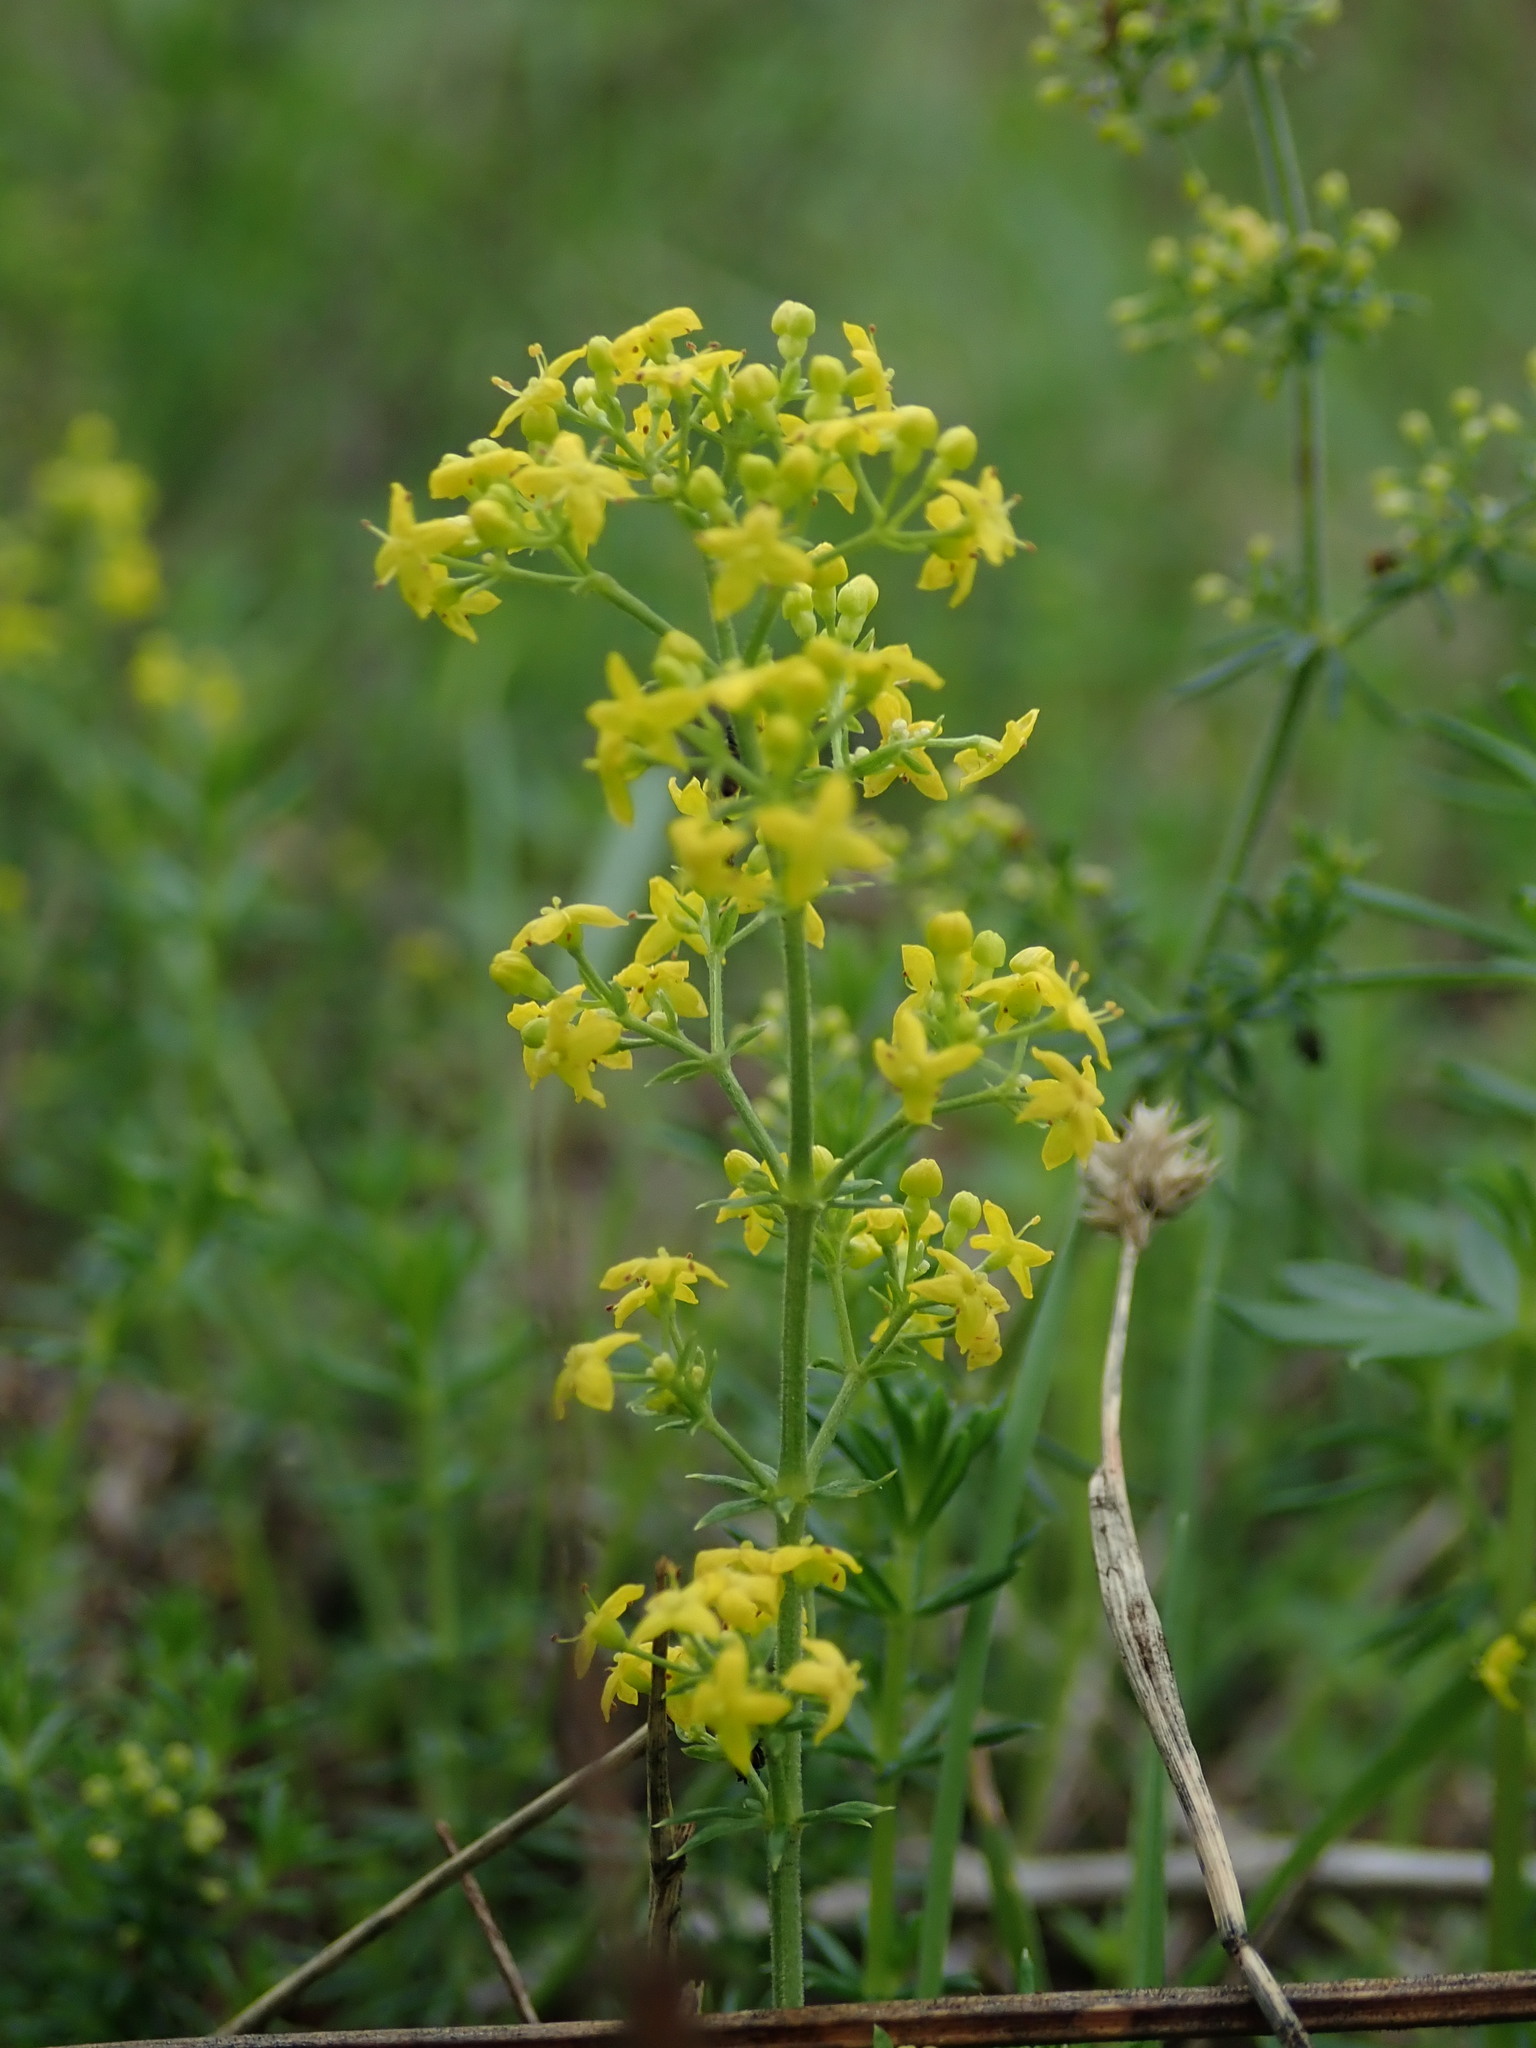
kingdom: Plantae
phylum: Tracheophyta
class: Magnoliopsida
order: Gentianales
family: Rubiaceae
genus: Galium
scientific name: Galium verum
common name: Lady's bedstraw
